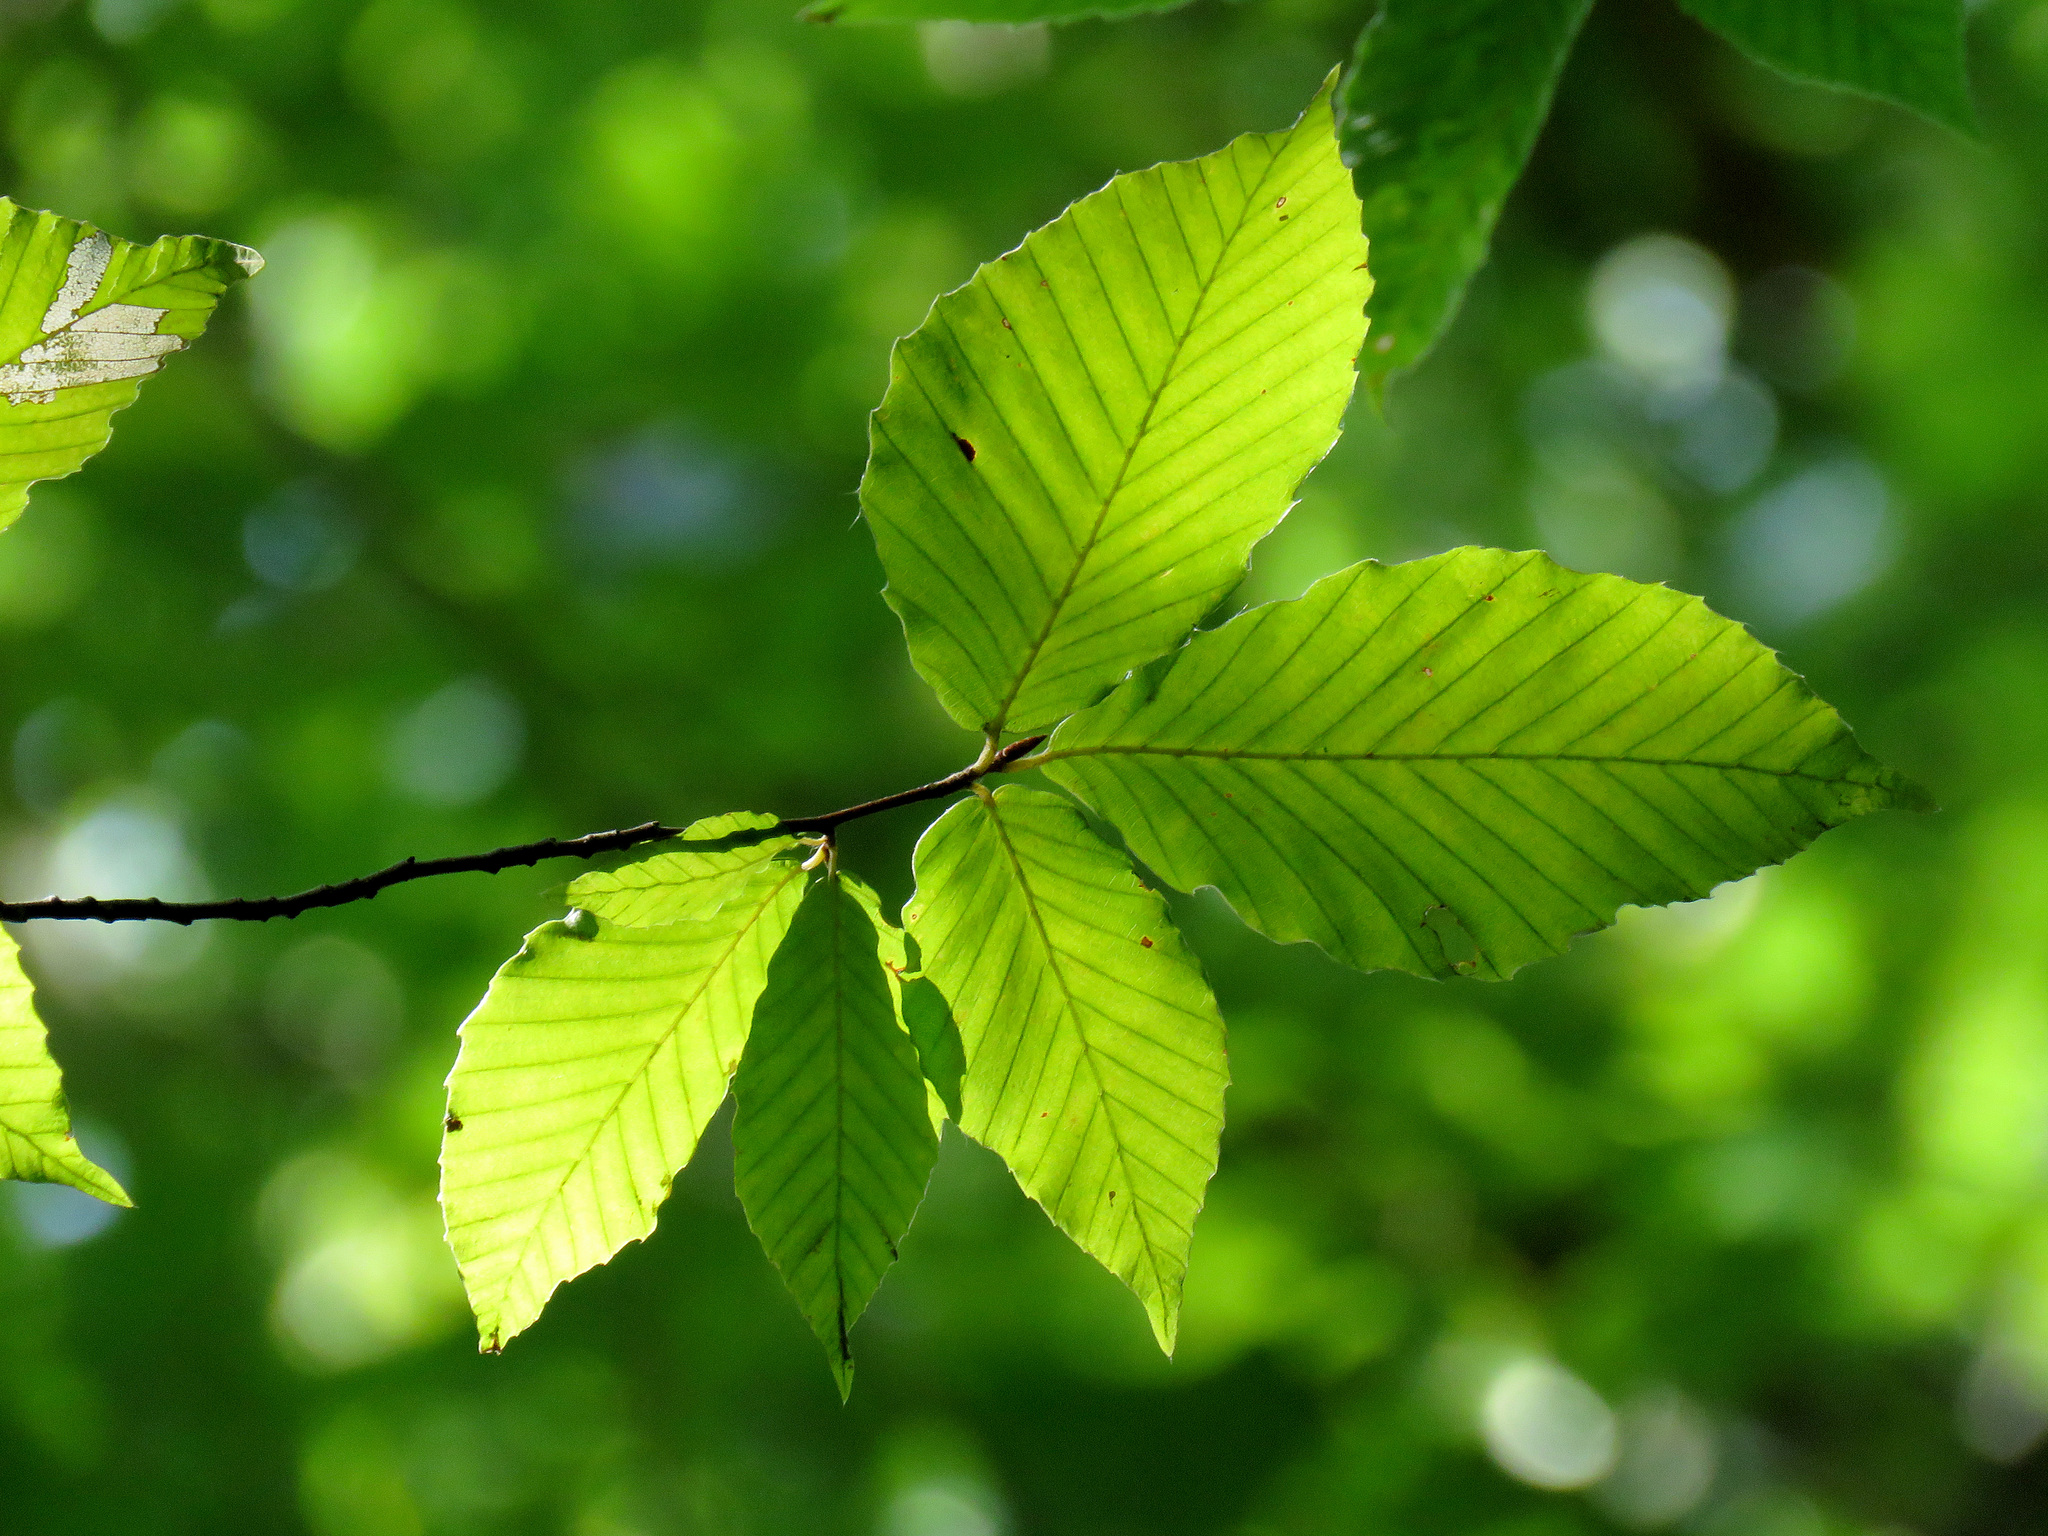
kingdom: Plantae
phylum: Tracheophyta
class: Magnoliopsida
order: Fagales
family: Fagaceae
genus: Fagus
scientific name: Fagus grandifolia
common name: American beech
